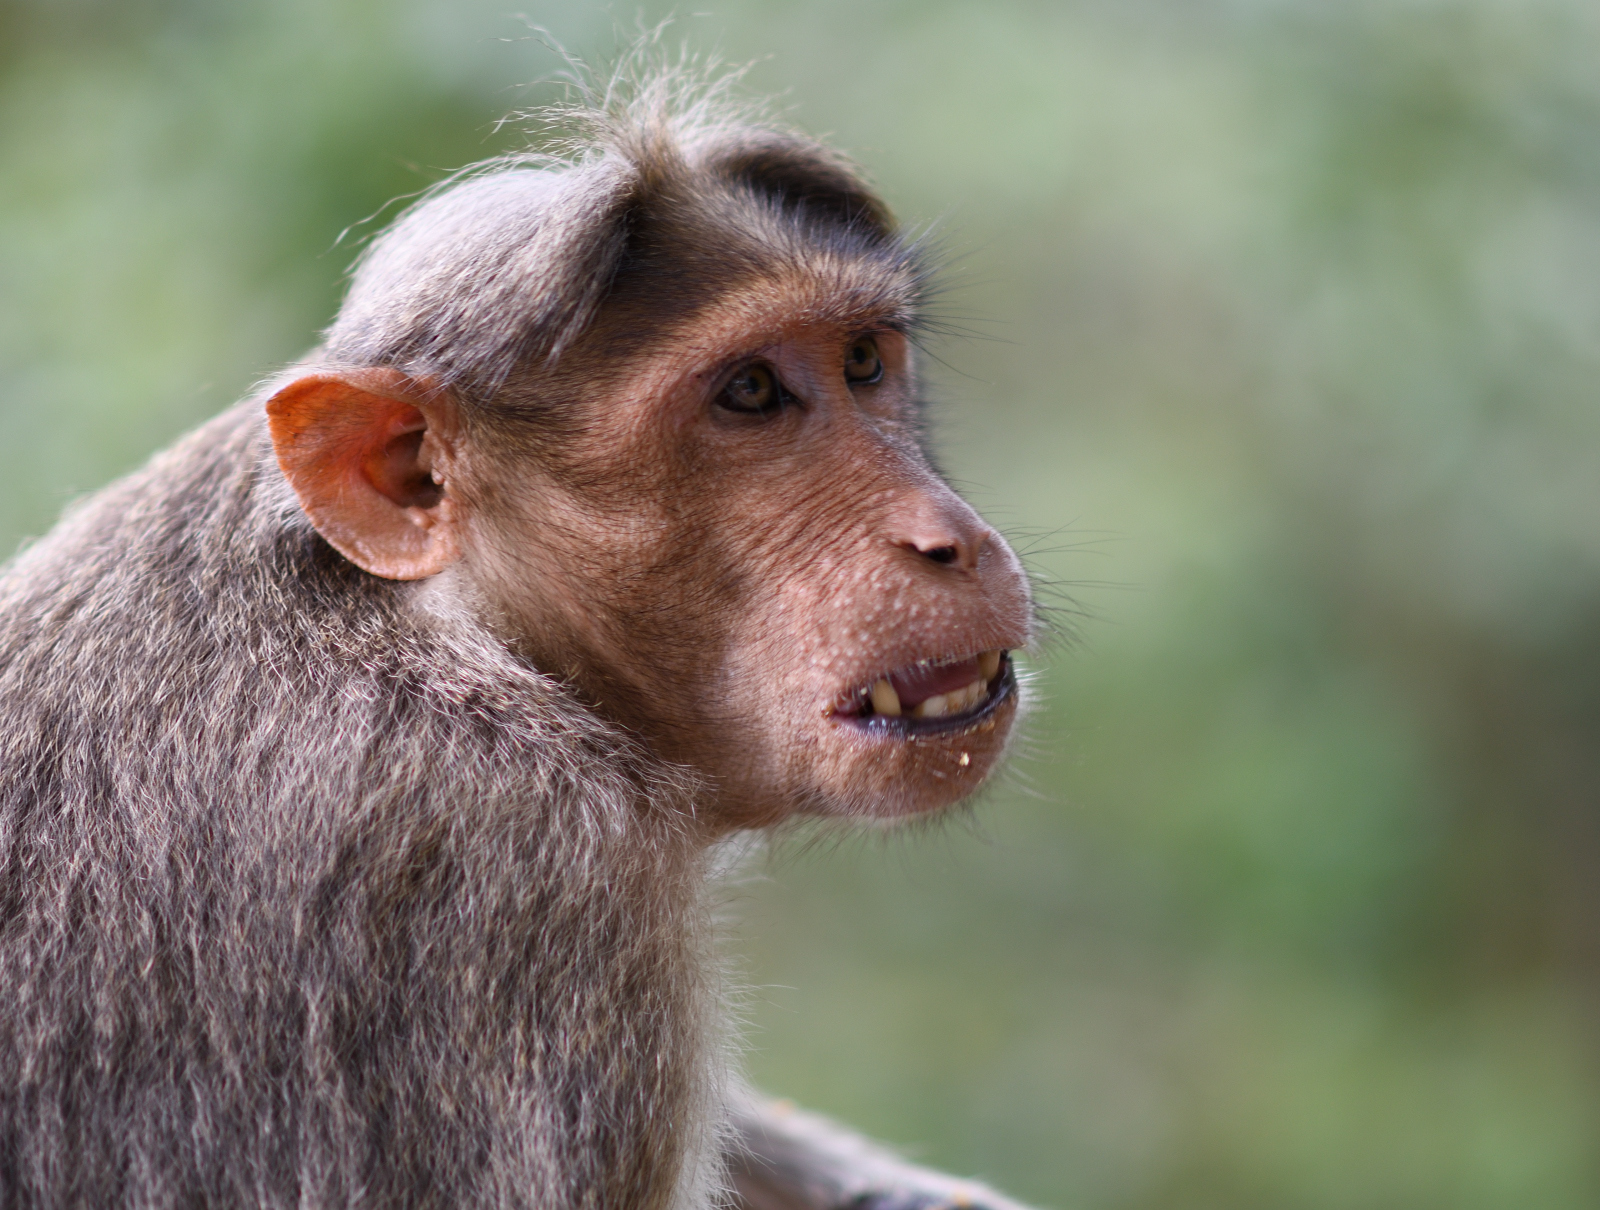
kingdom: Animalia
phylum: Chordata
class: Mammalia
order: Primates
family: Cercopithecidae
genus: Macaca
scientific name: Macaca radiata
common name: Bonnet macaque
